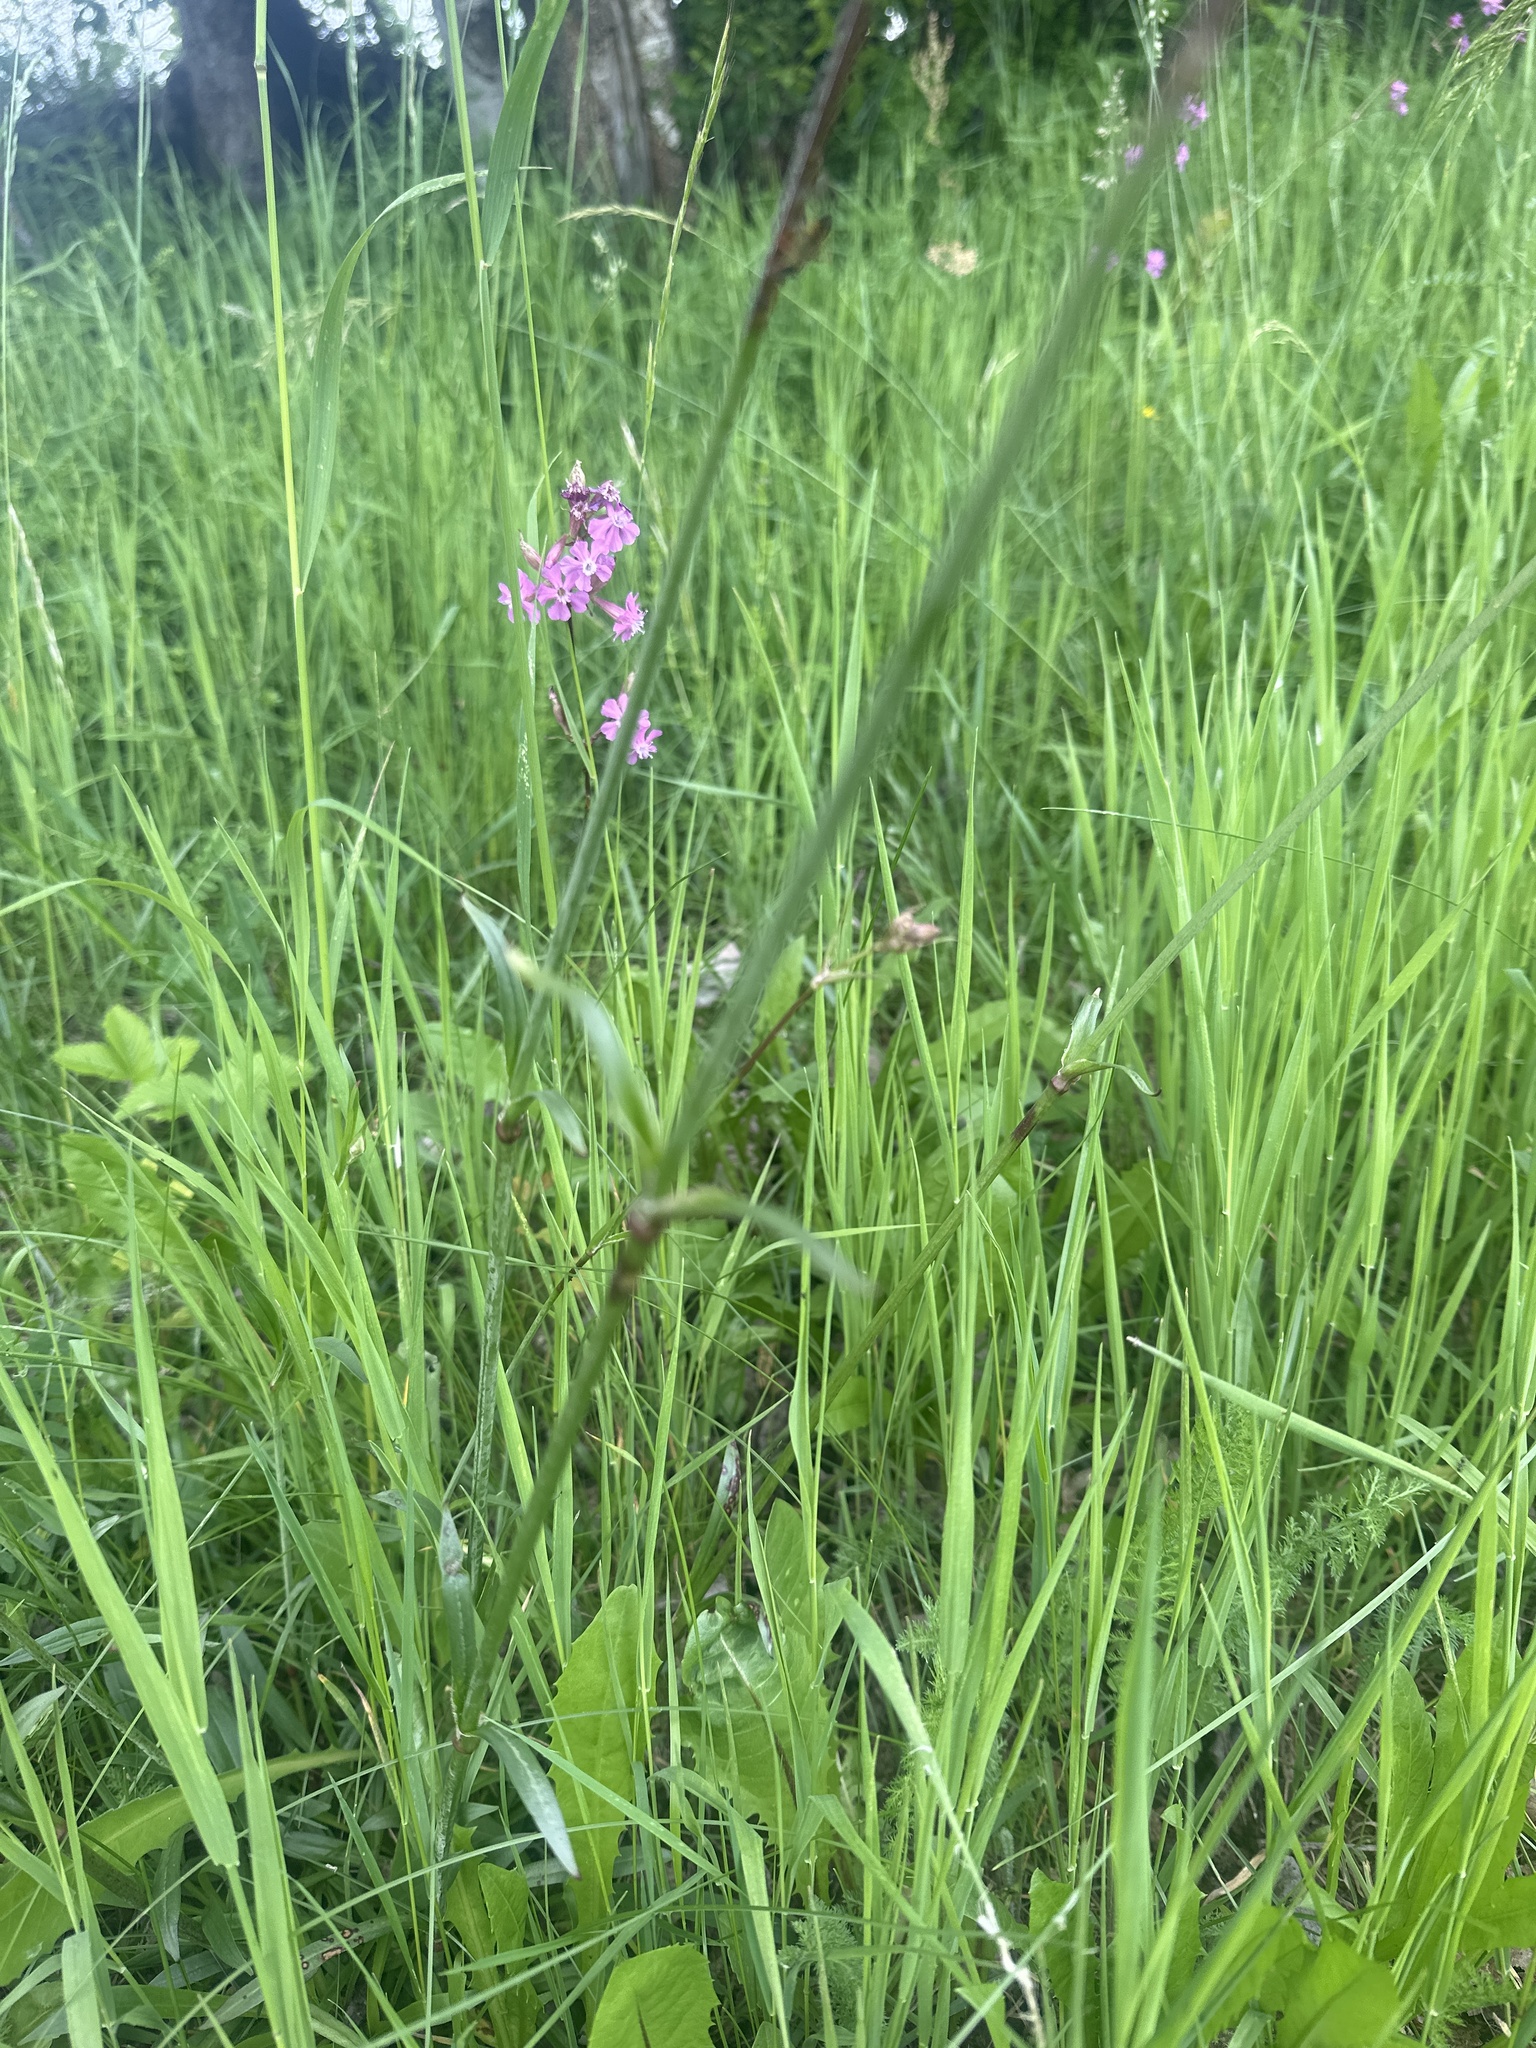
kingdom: Plantae
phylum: Tracheophyta
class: Magnoliopsida
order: Caryophyllales
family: Caryophyllaceae
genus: Viscaria
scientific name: Viscaria vulgaris
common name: Clammy campion
